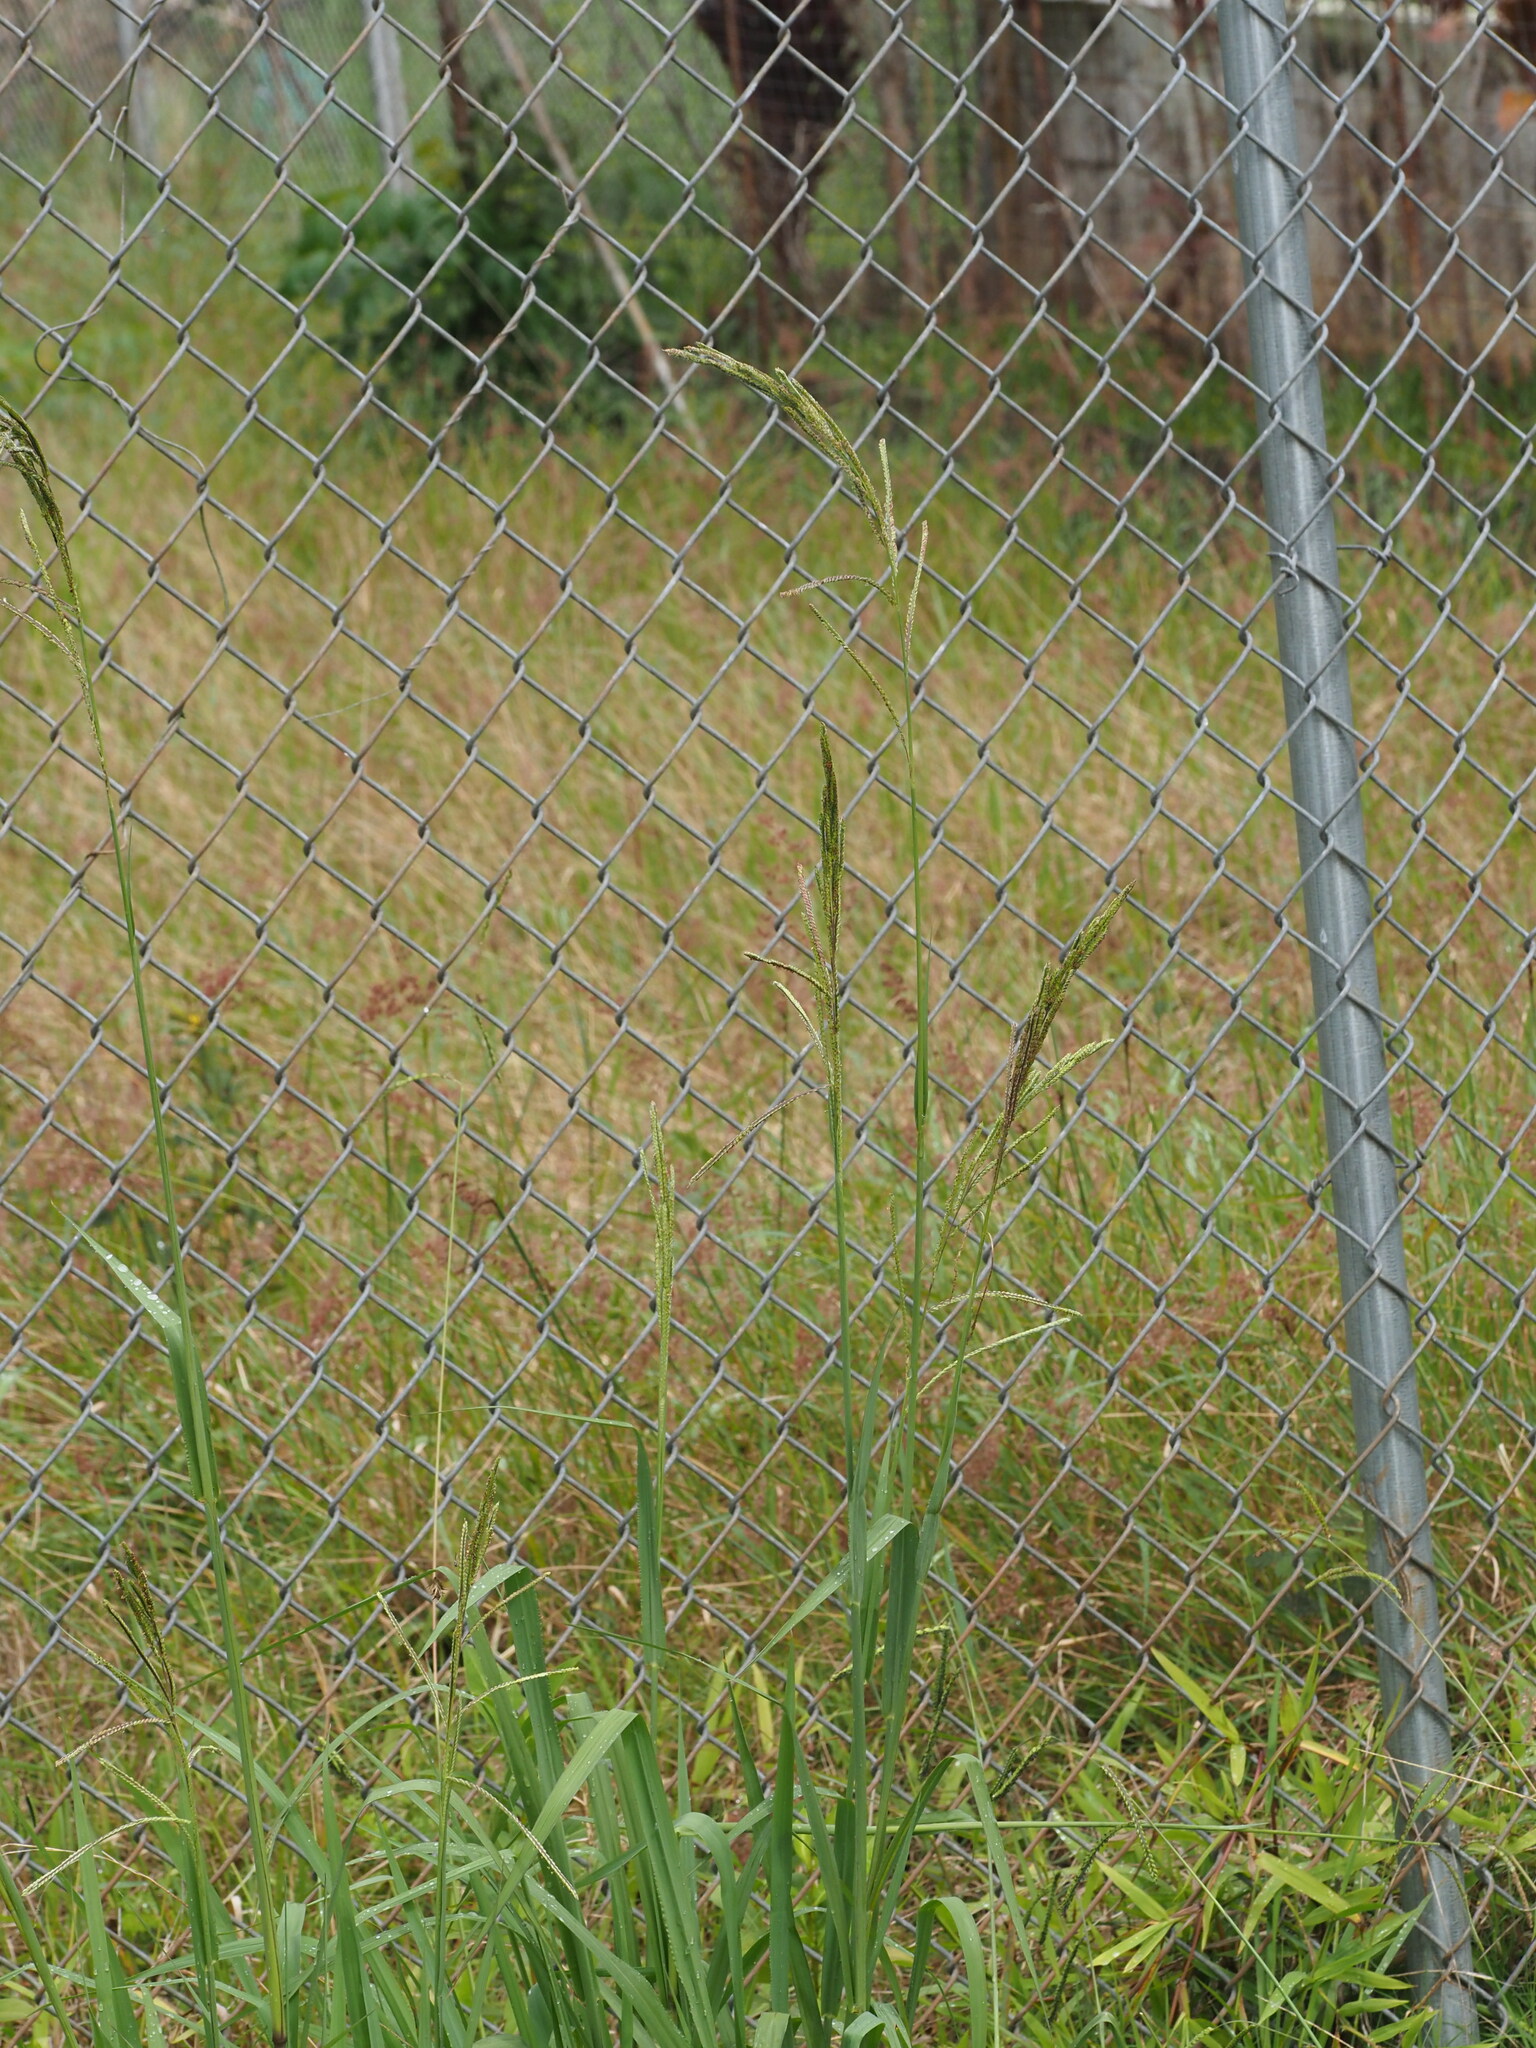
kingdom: Plantae
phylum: Tracheophyta
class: Liliopsida
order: Poales
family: Poaceae
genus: Paspalum
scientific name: Paspalum urvillei
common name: Vasey's grass
